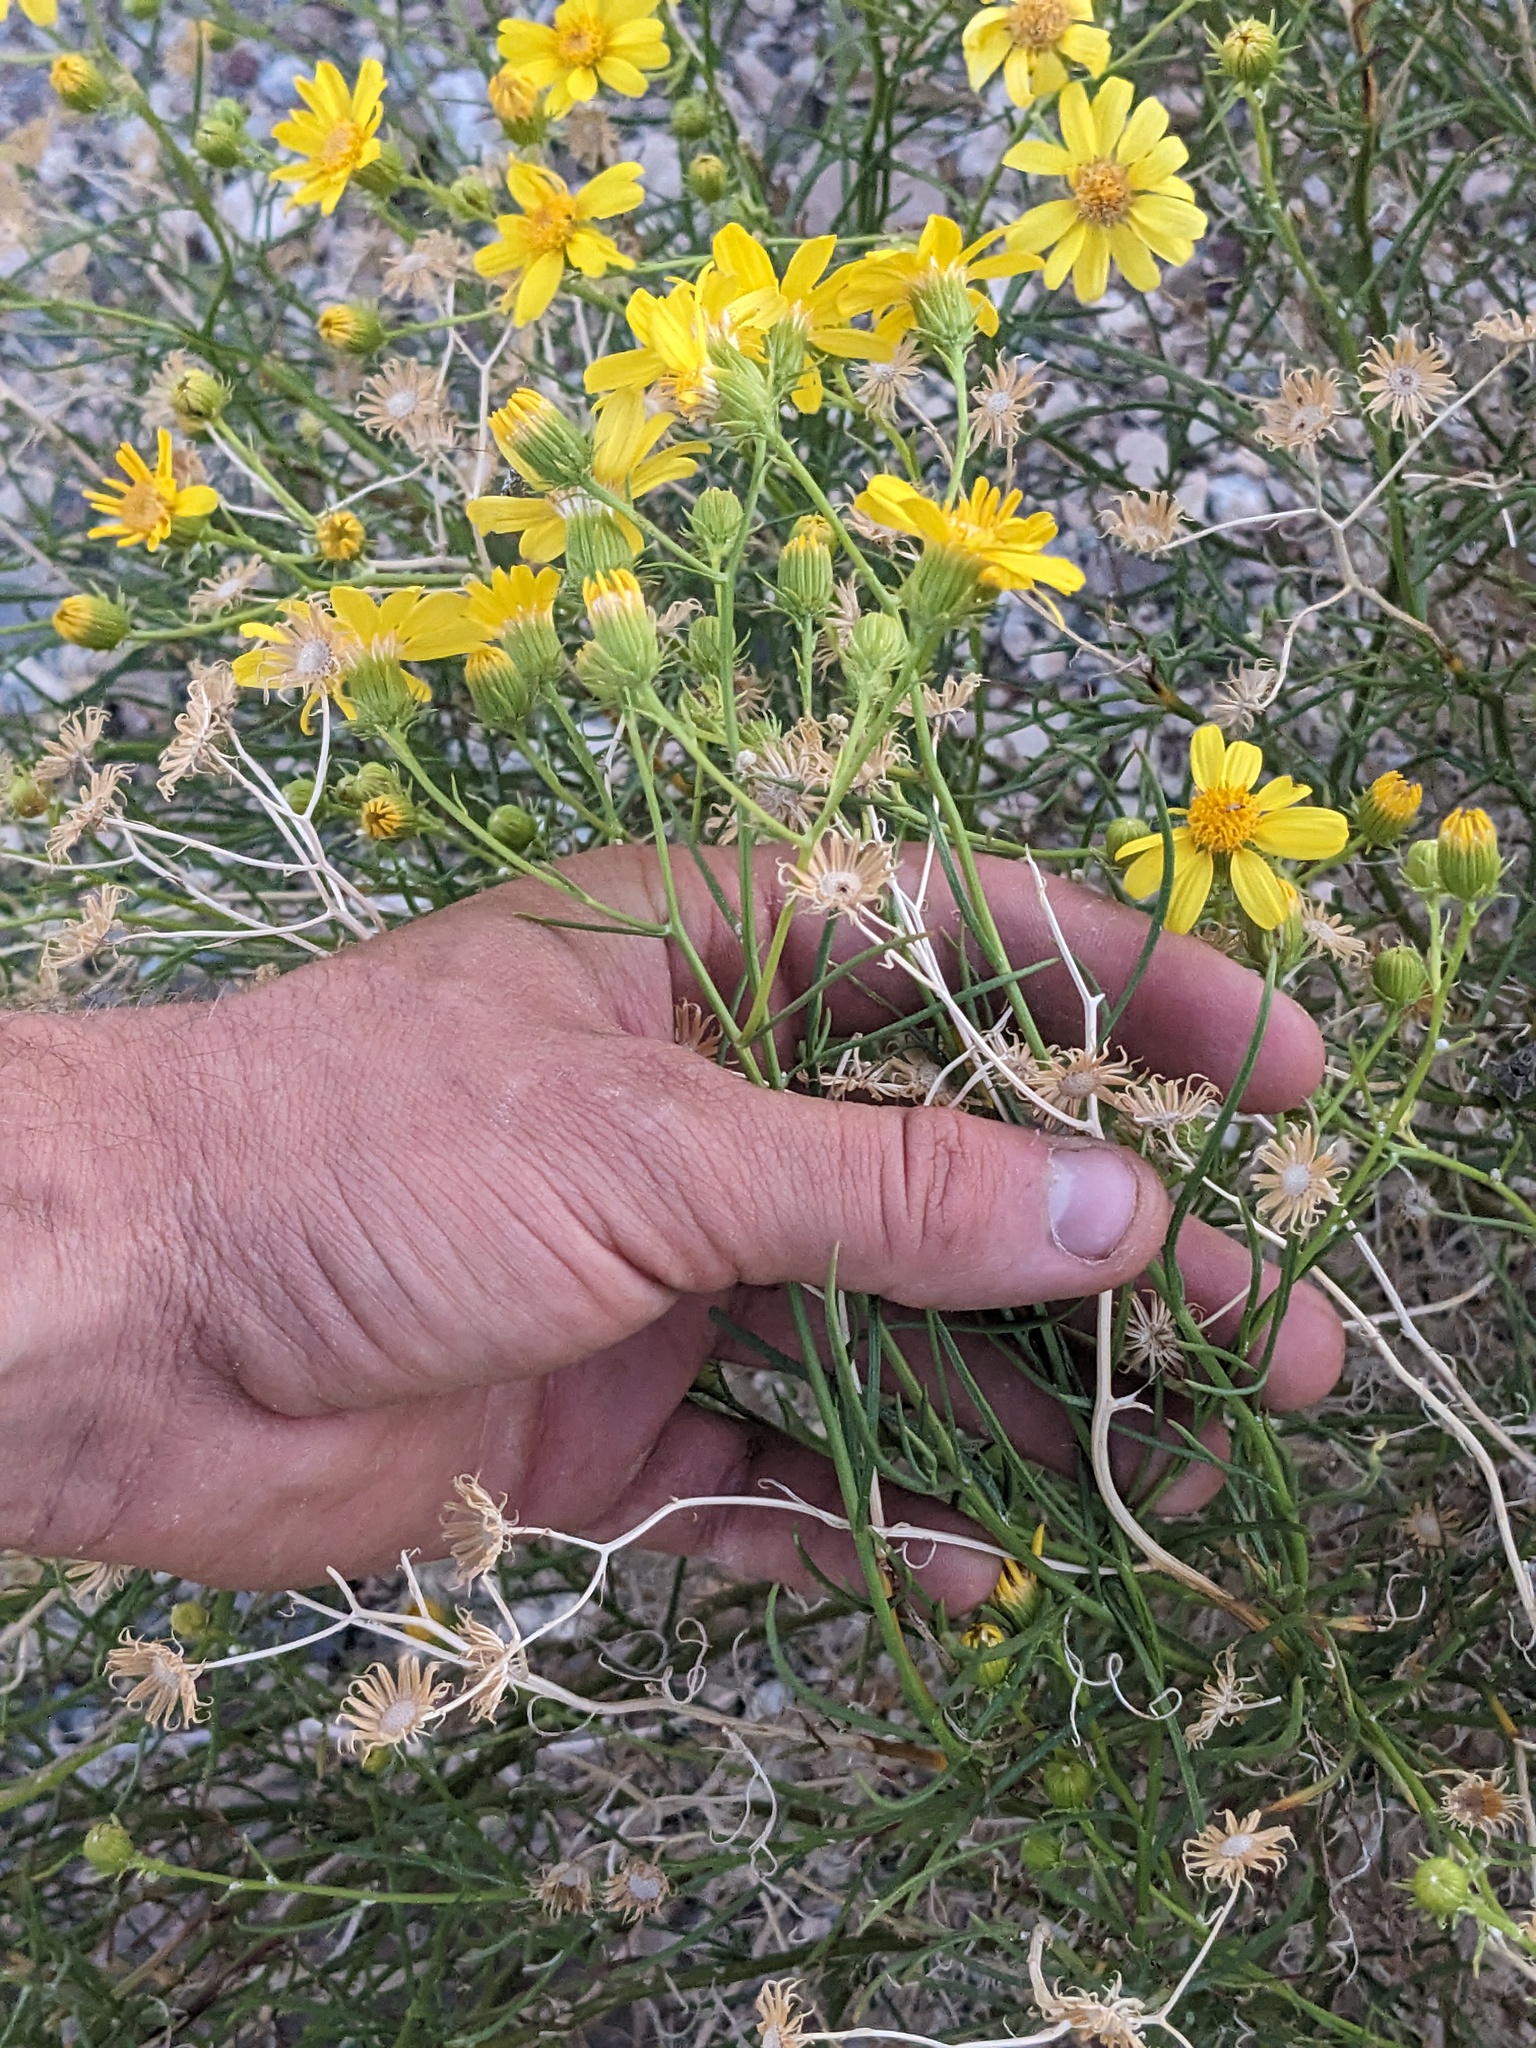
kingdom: Plantae
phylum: Tracheophyta
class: Magnoliopsida
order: Asterales
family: Asteraceae
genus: Senecio
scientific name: Senecio flaccidus
